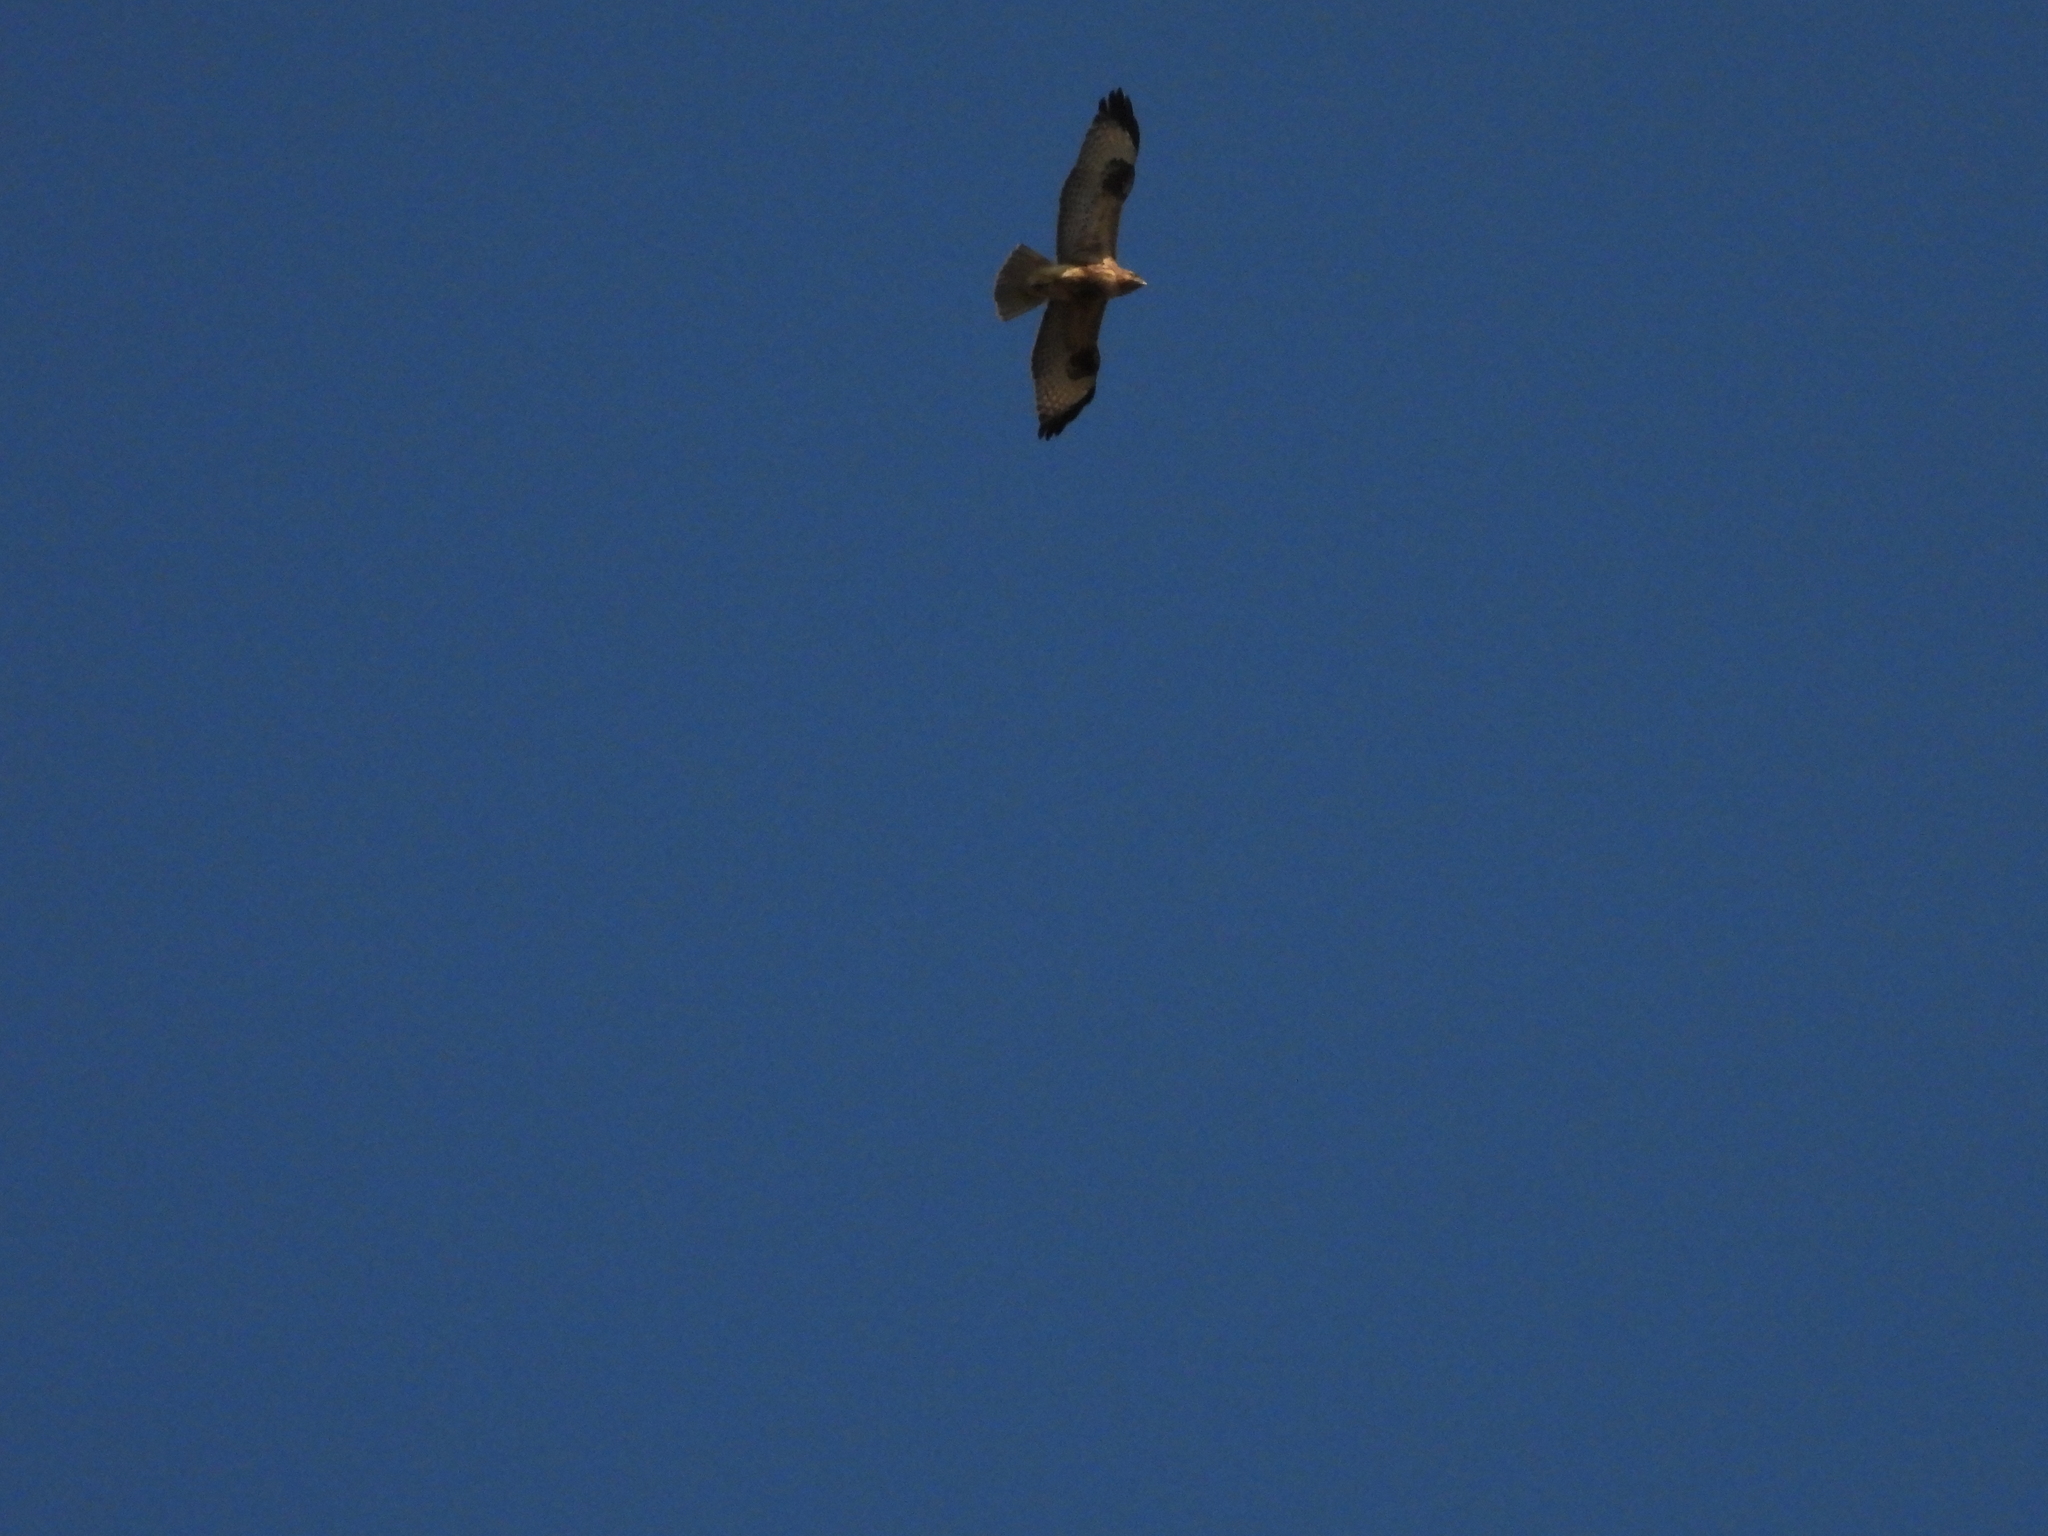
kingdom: Animalia
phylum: Chordata
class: Aves
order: Accipitriformes
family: Accipitridae
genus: Buteo
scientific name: Buteo japonicus
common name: Eastern buzzard
